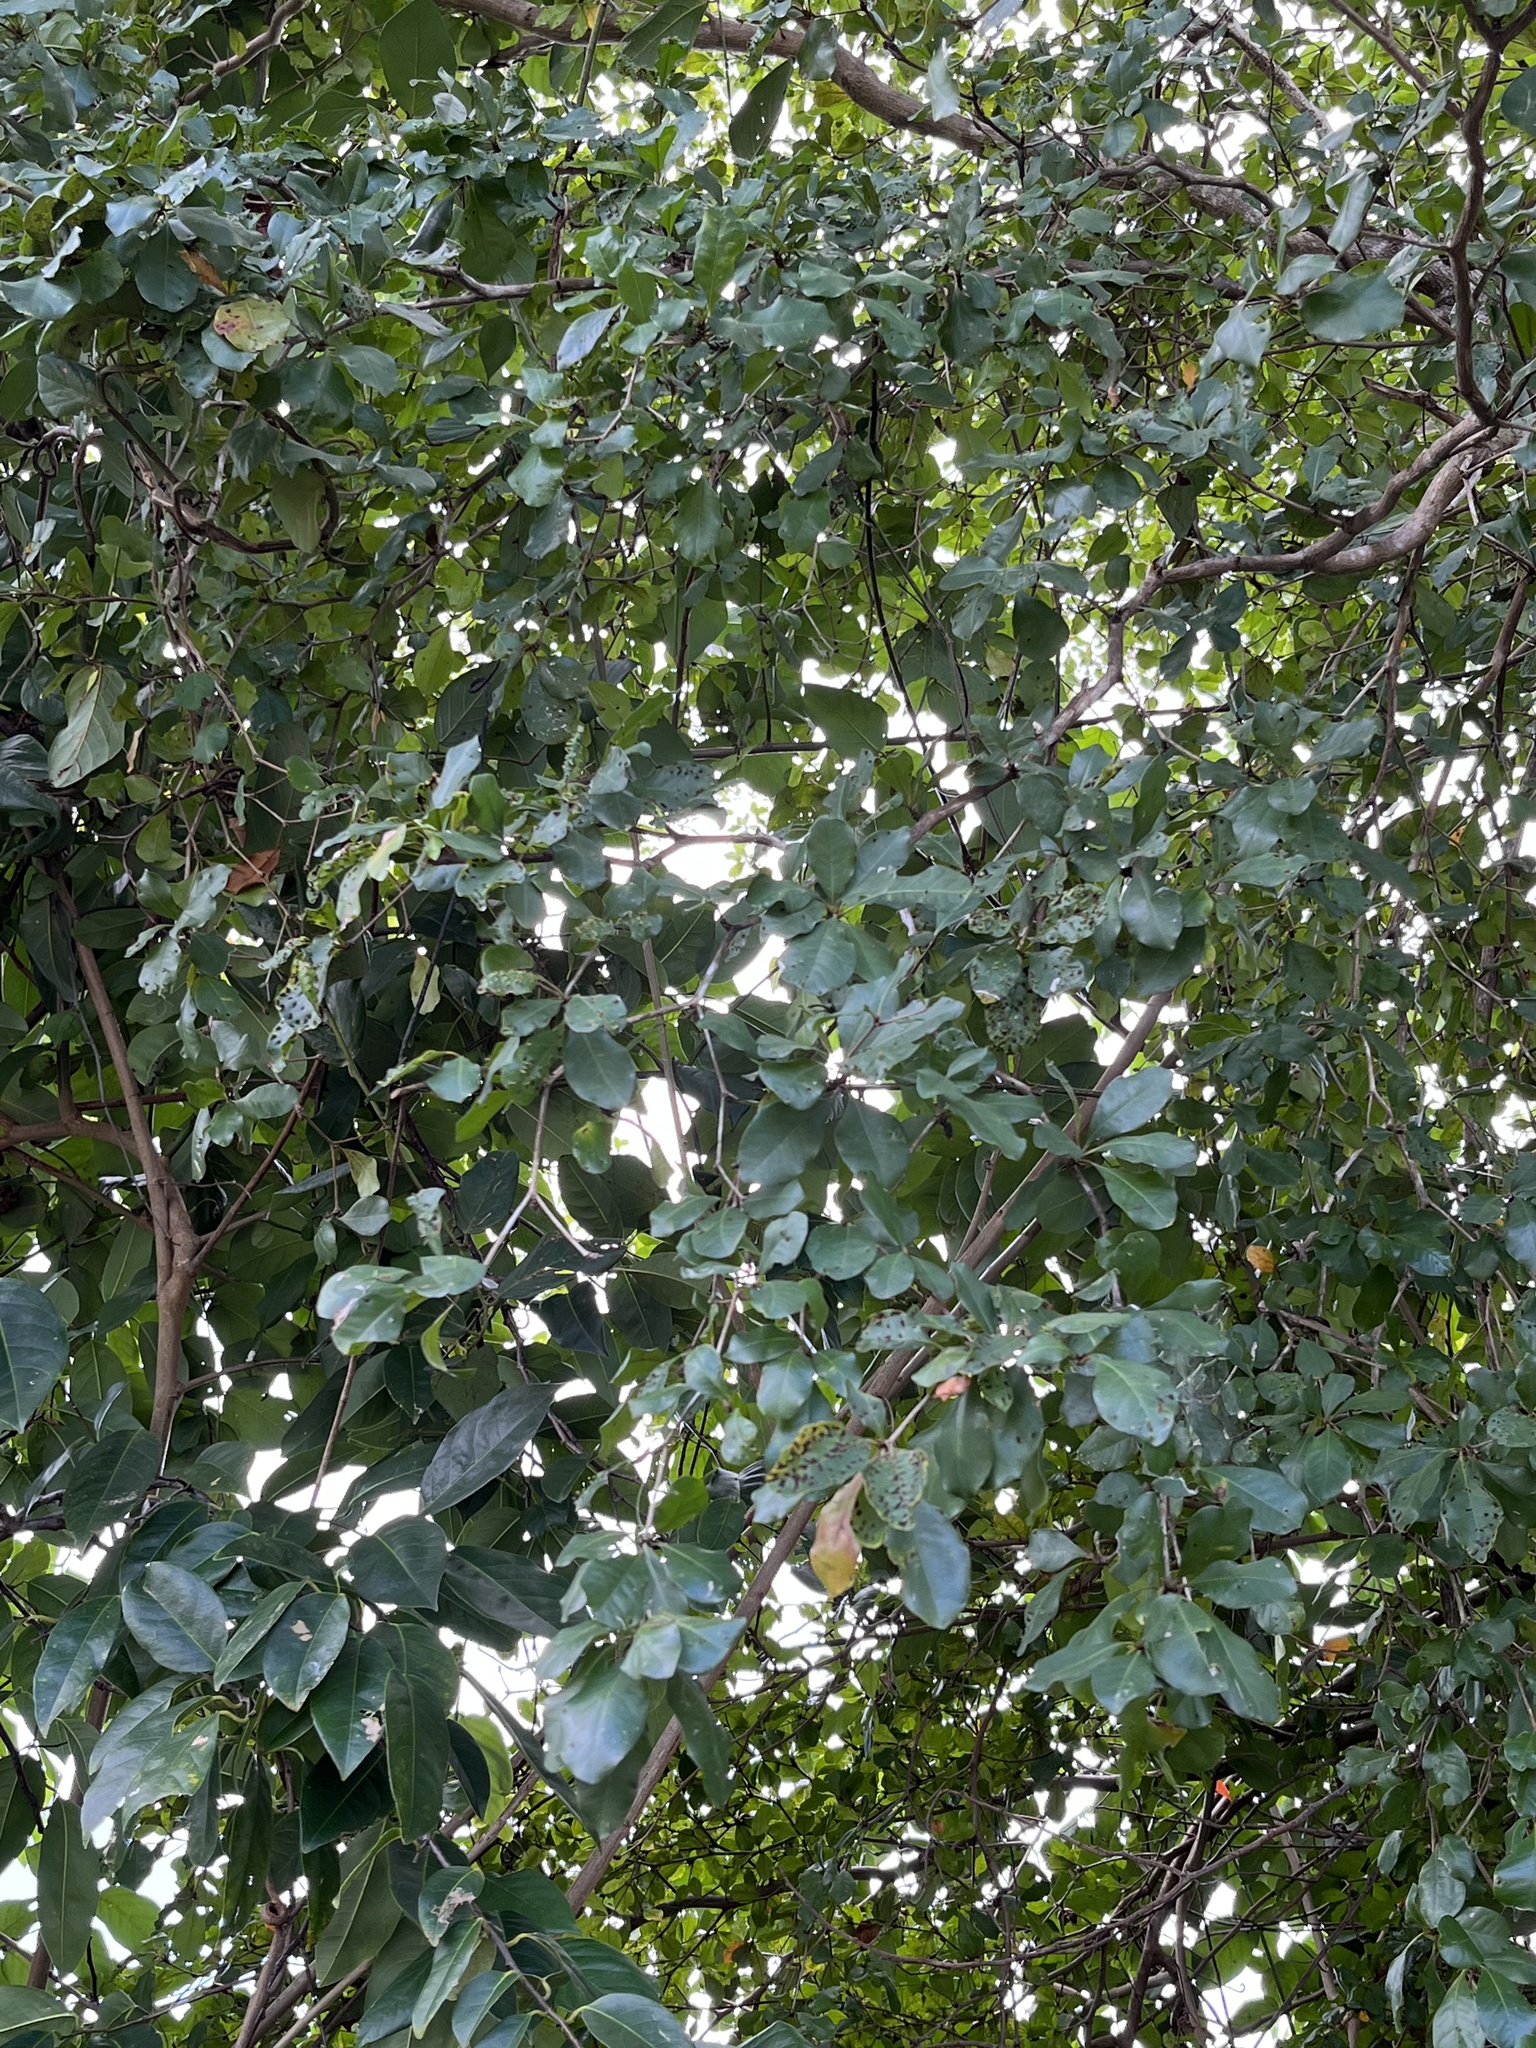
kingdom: Plantae
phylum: Tracheophyta
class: Magnoliopsida
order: Myrtales
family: Combretaceae
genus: Terminalia
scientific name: Terminalia buceras
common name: Black-olive
